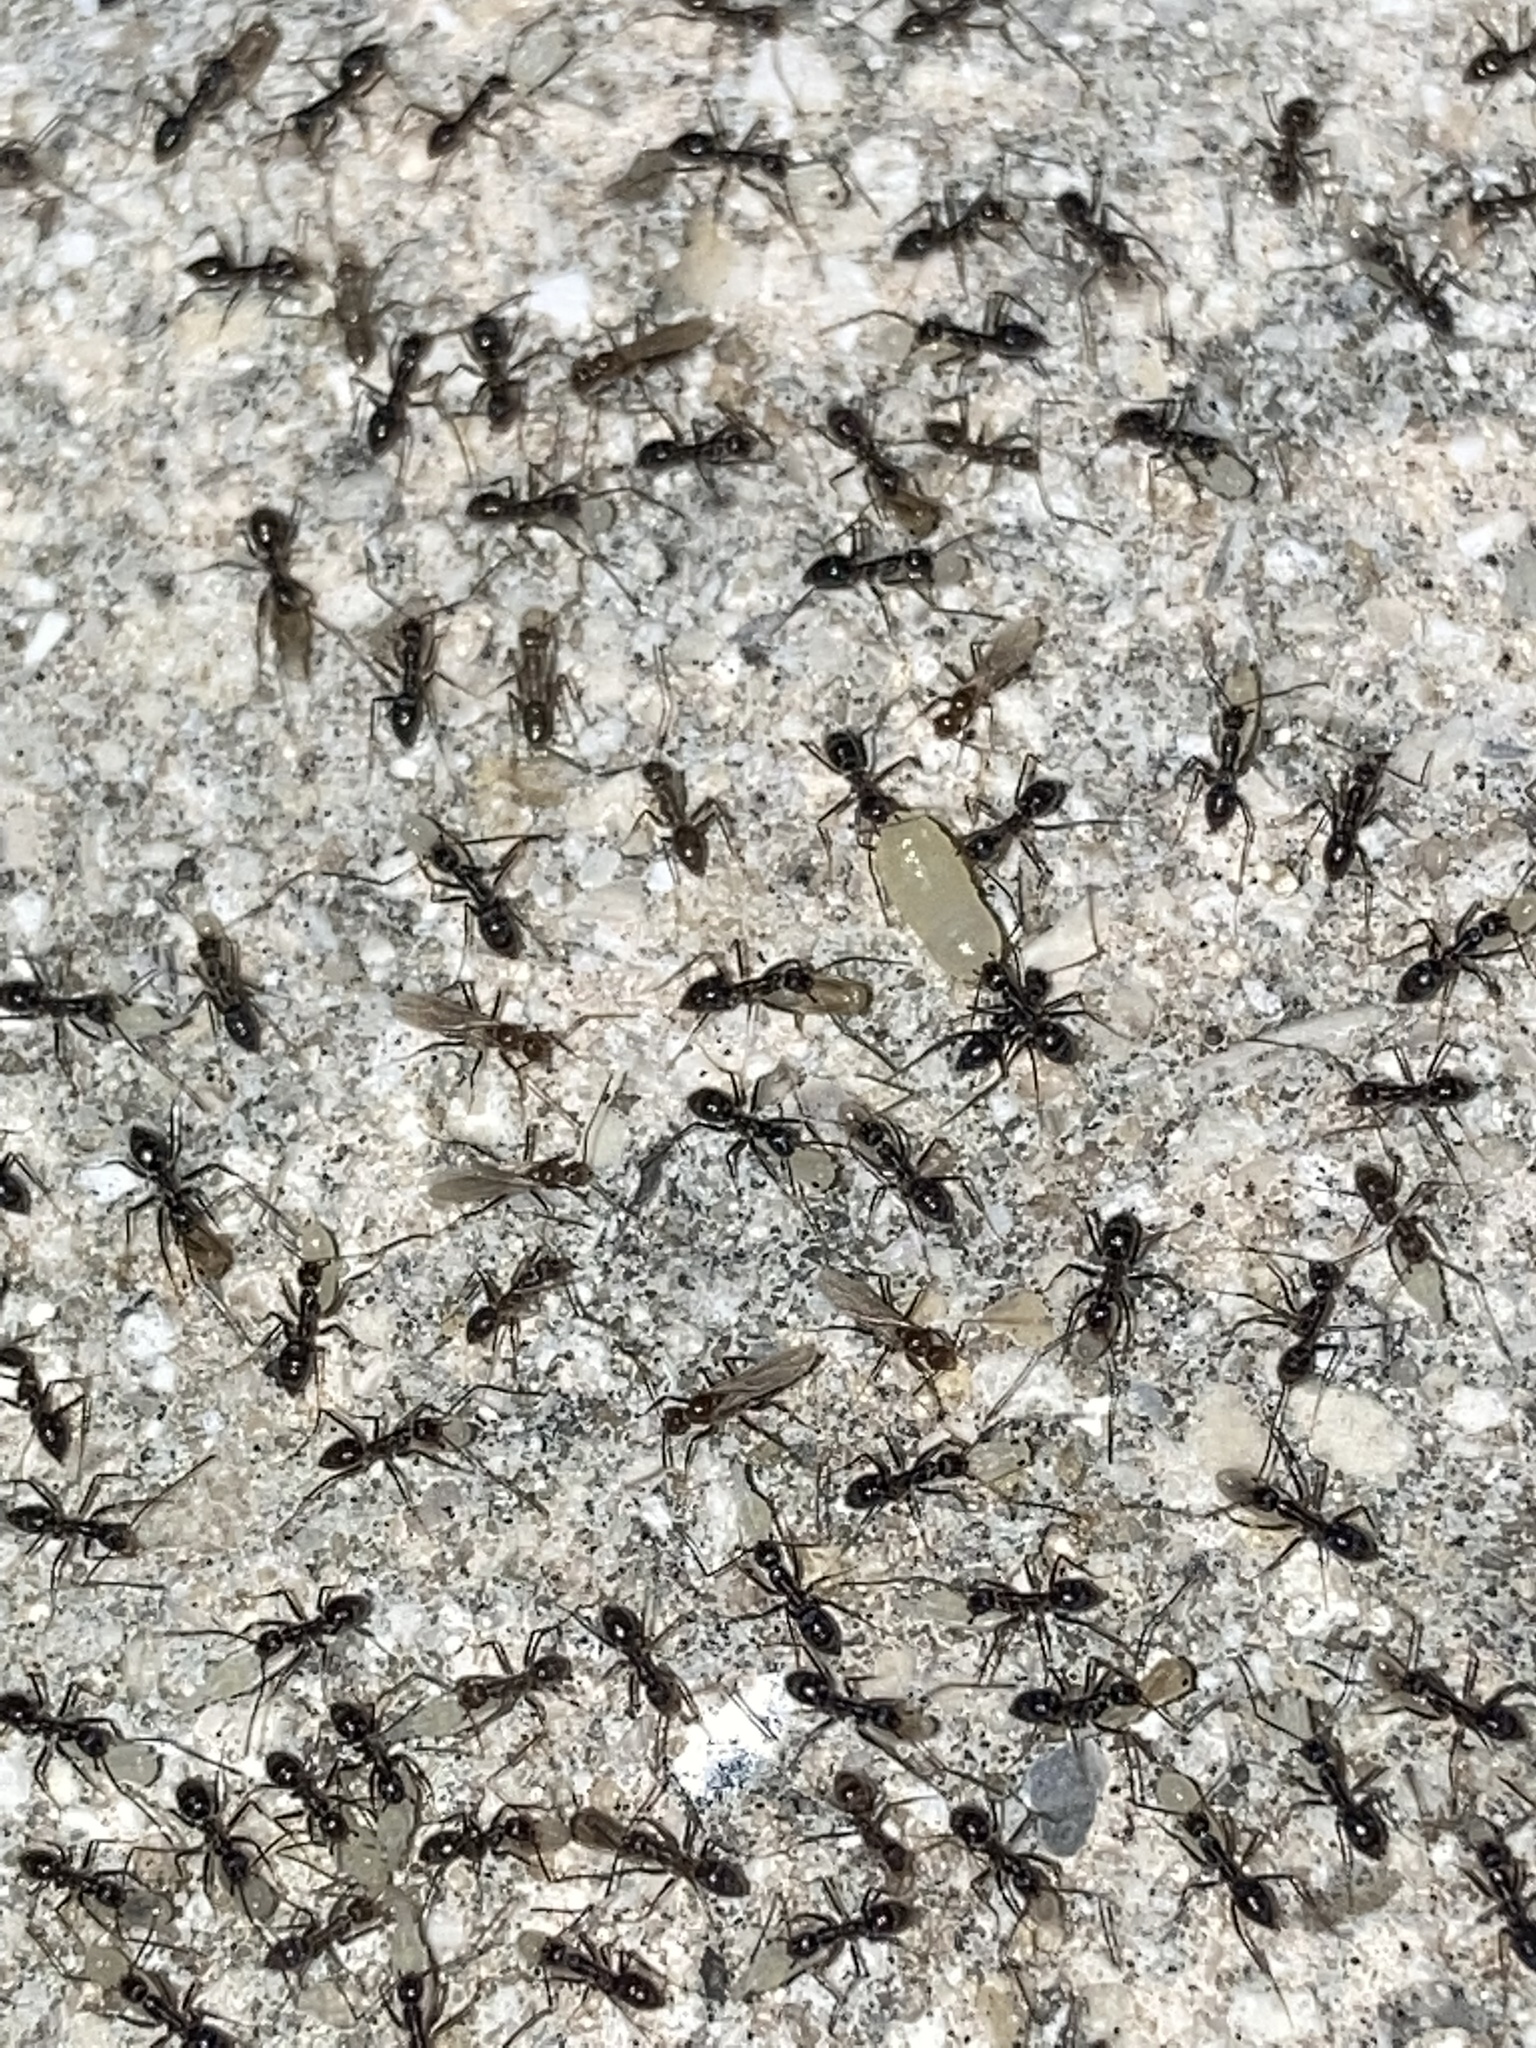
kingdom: Animalia
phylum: Arthropoda
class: Insecta
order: Hymenoptera
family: Formicidae
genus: Paratrechina
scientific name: Paratrechina longicornis
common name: Longhorned crazy ant
